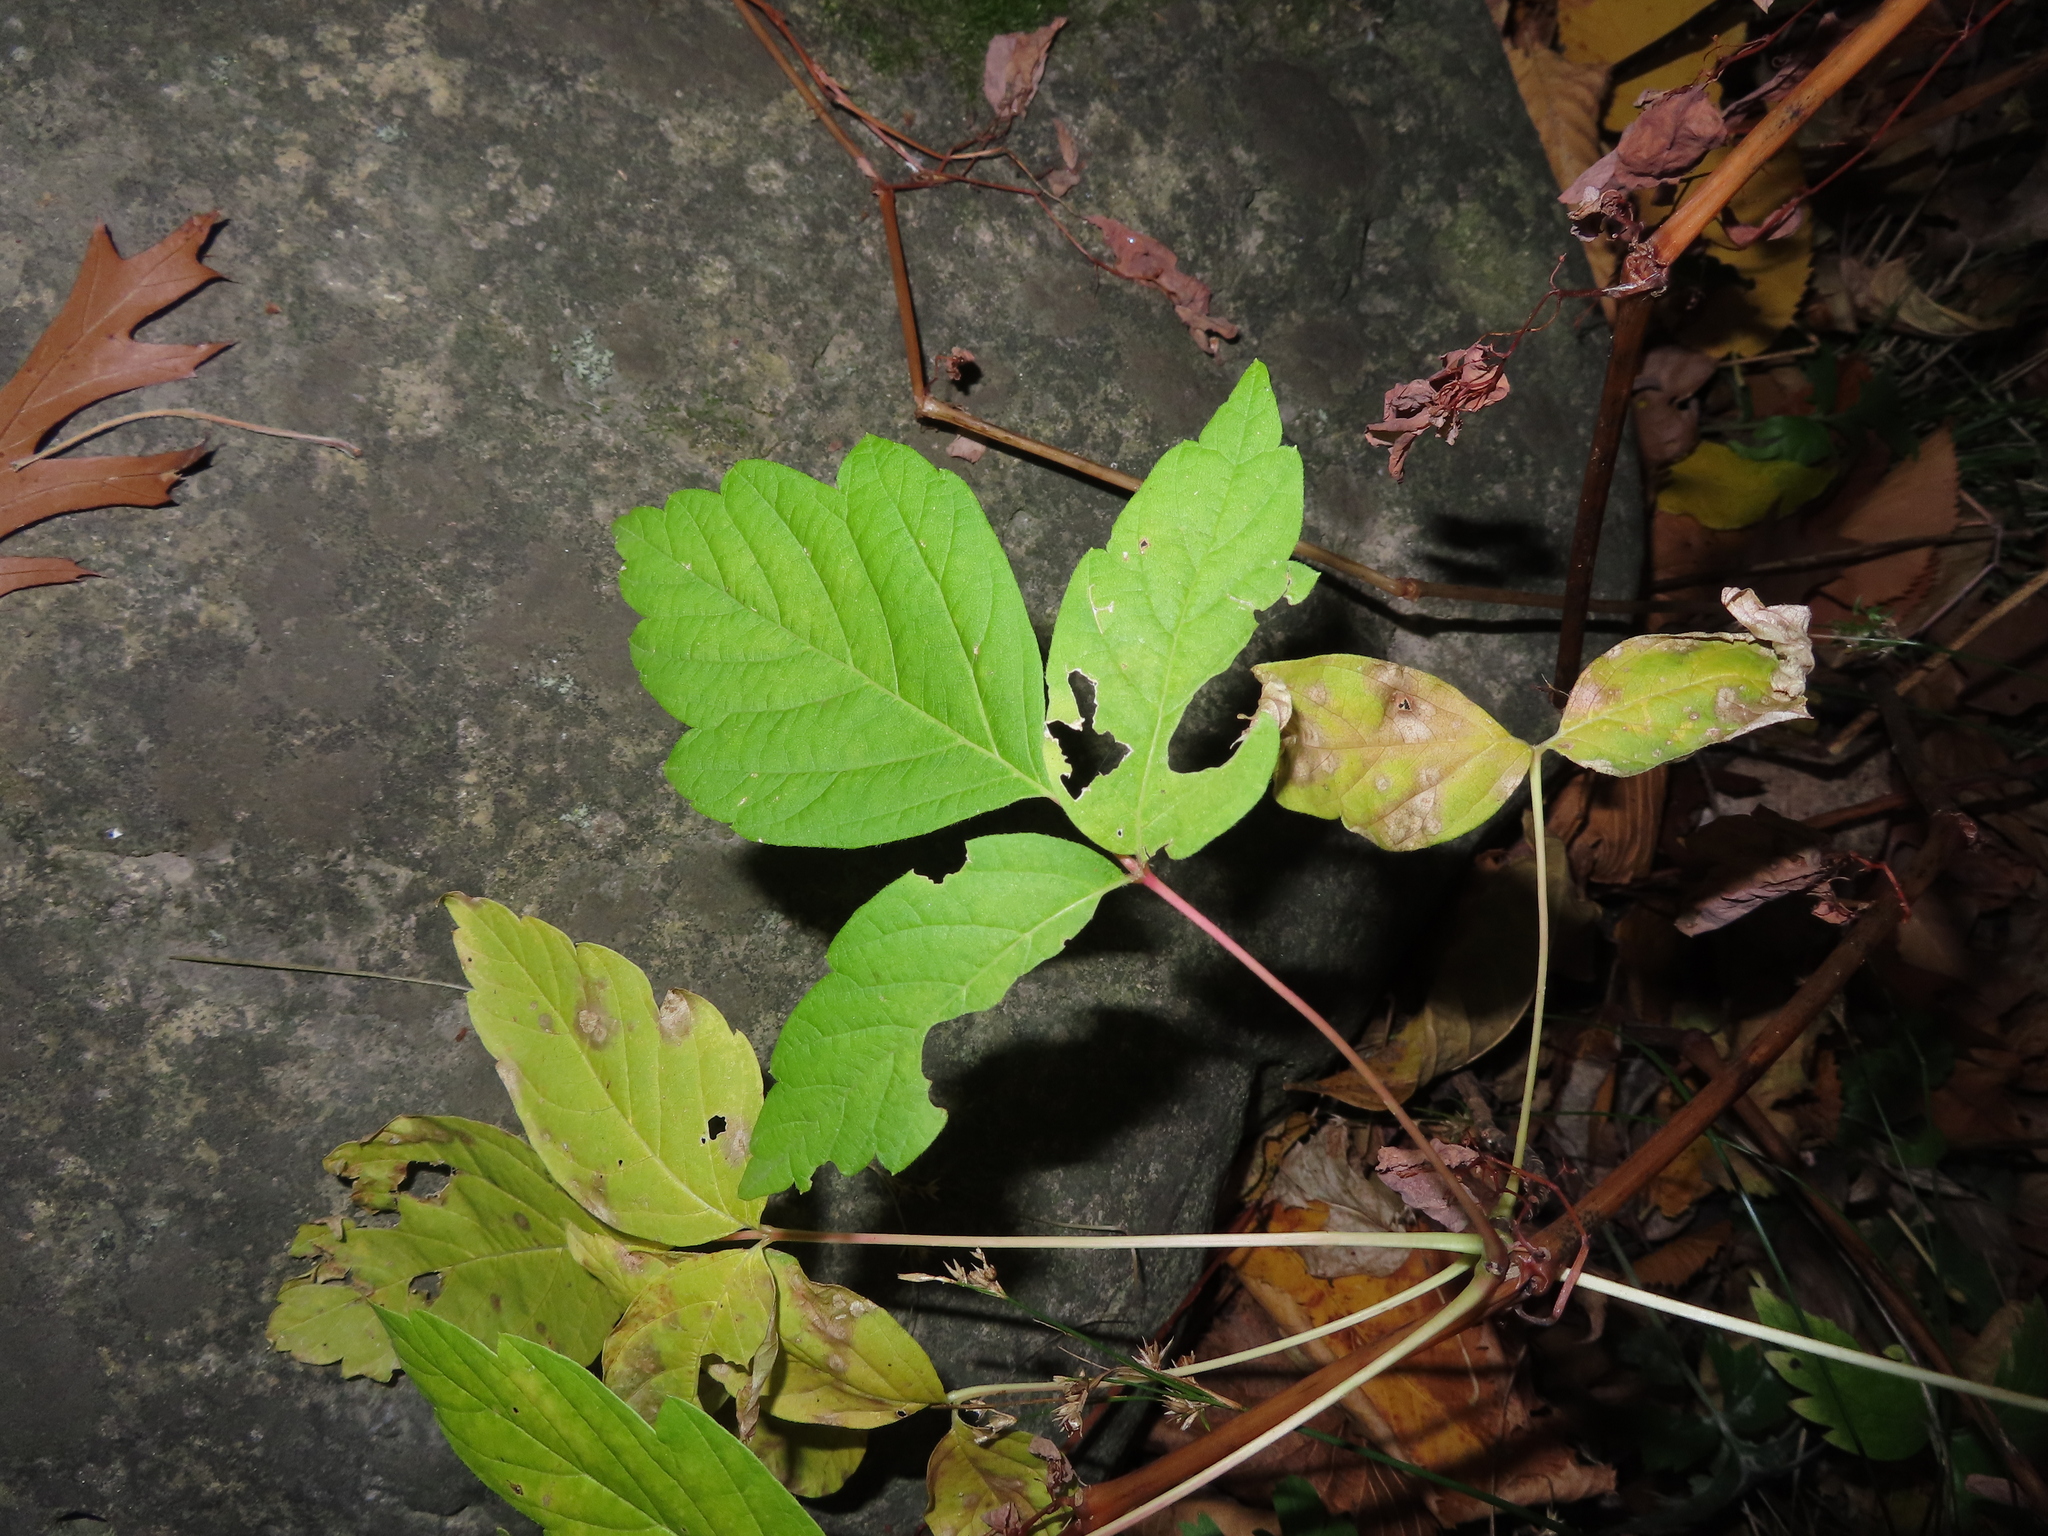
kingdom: Plantae
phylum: Tracheophyta
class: Magnoliopsida
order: Sapindales
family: Sapindaceae
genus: Acer
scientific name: Acer negundo
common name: Ashleaf maple
